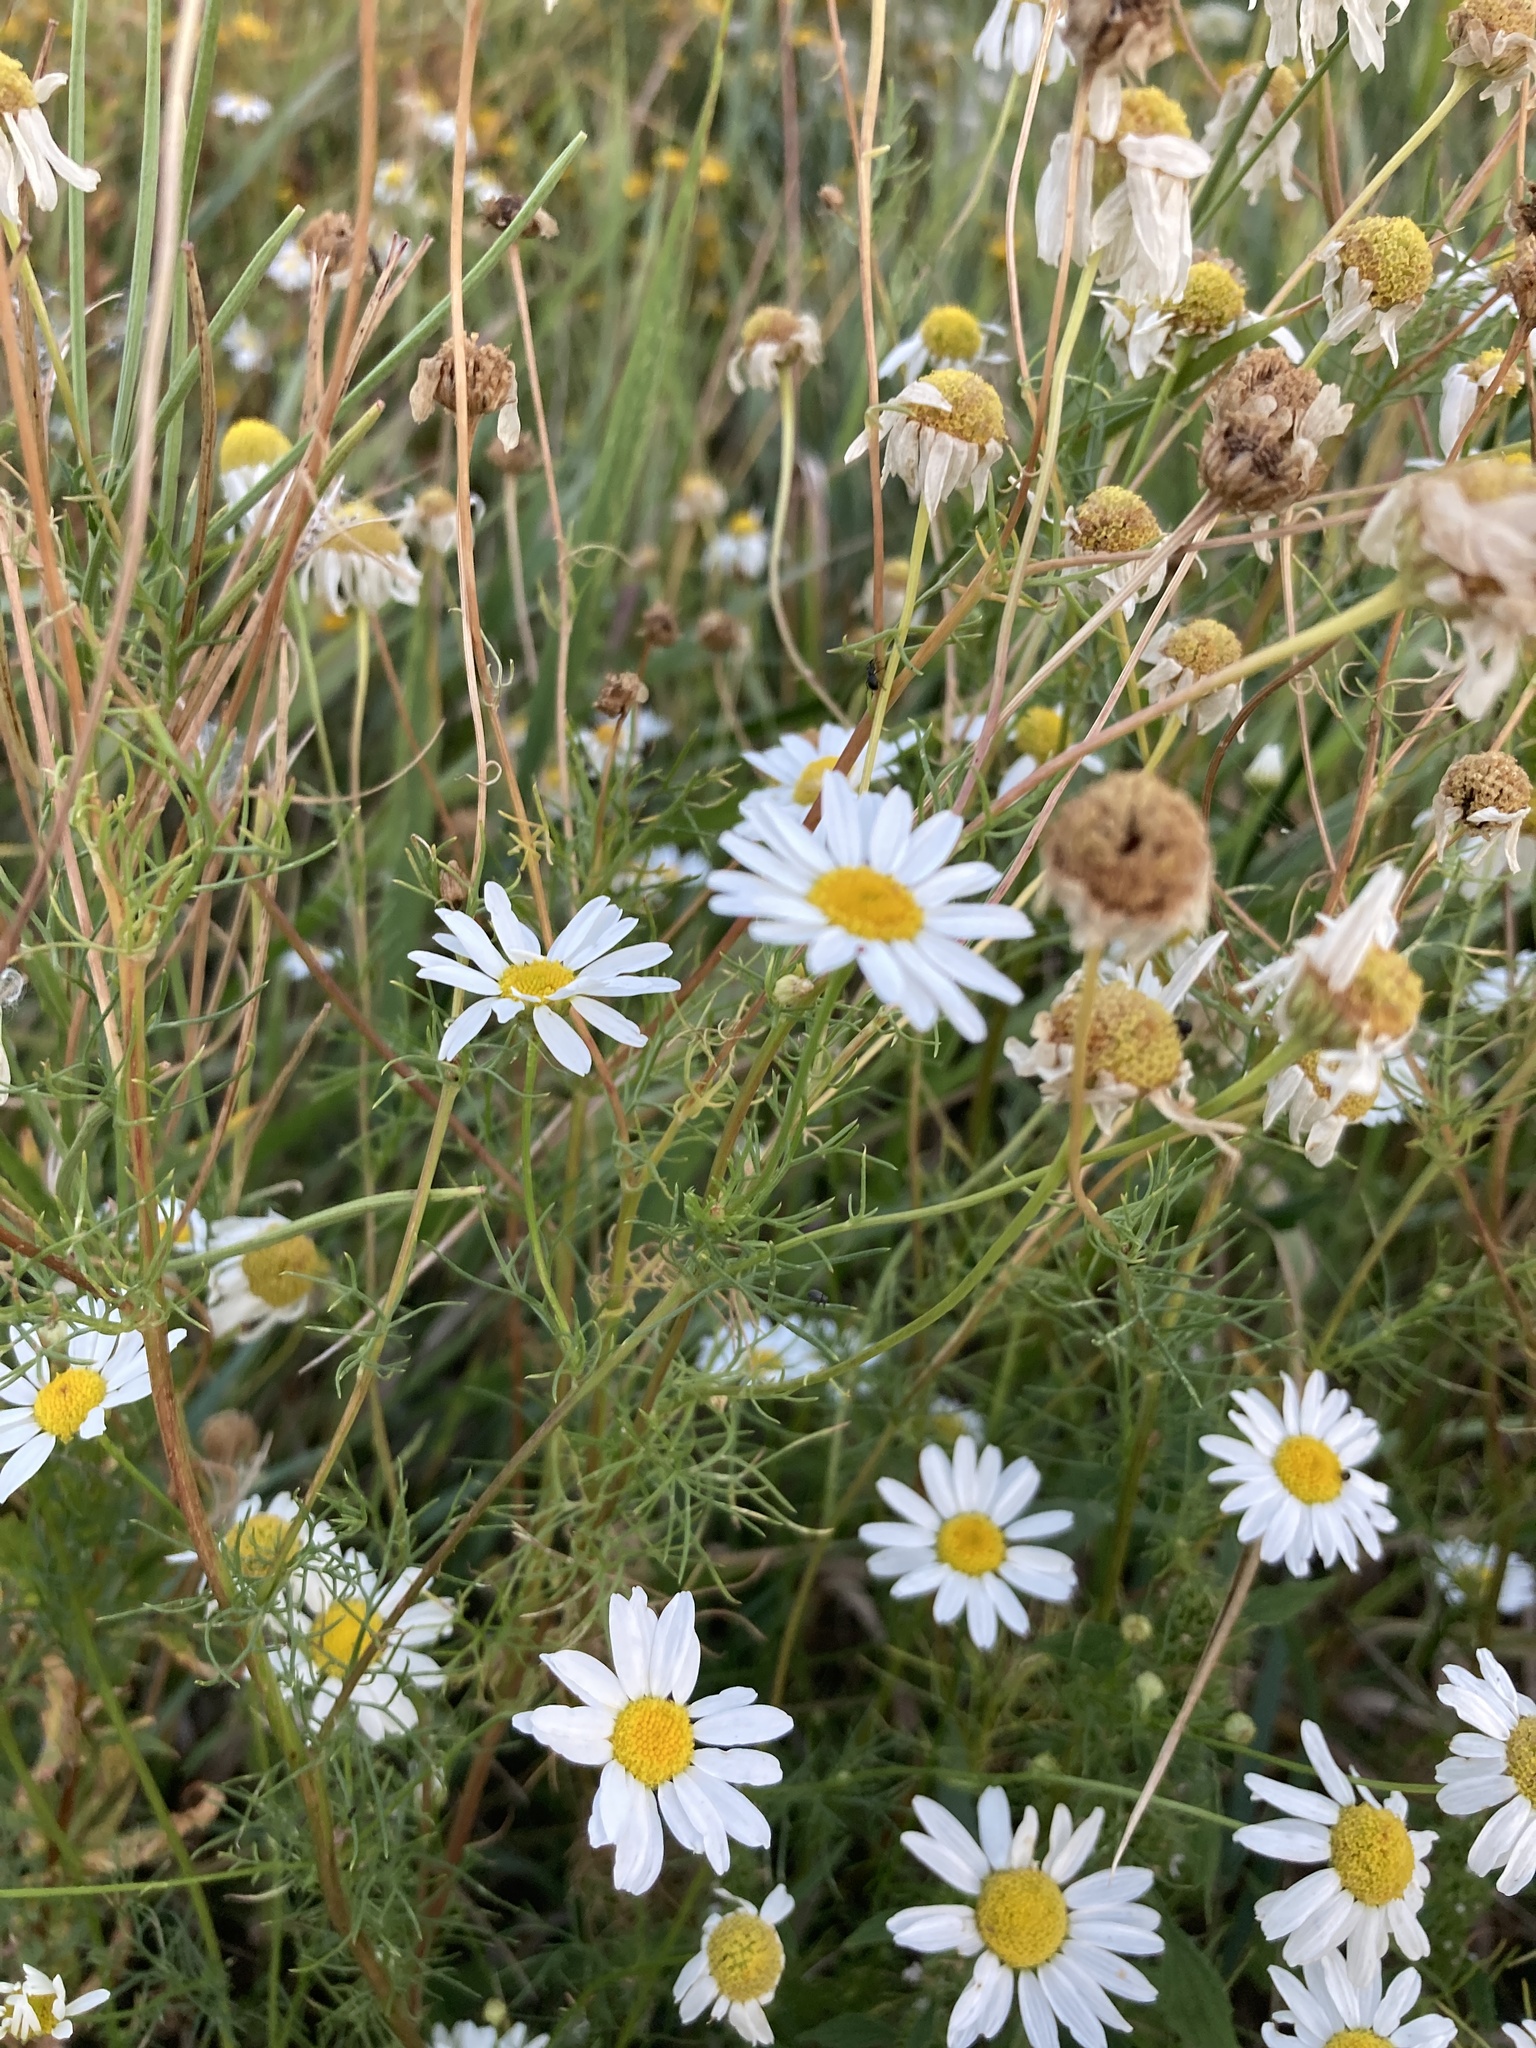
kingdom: Plantae
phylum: Tracheophyta
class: Magnoliopsida
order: Asterales
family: Asteraceae
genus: Tripleurospermum
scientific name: Tripleurospermum inodorum
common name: Scentless mayweed
